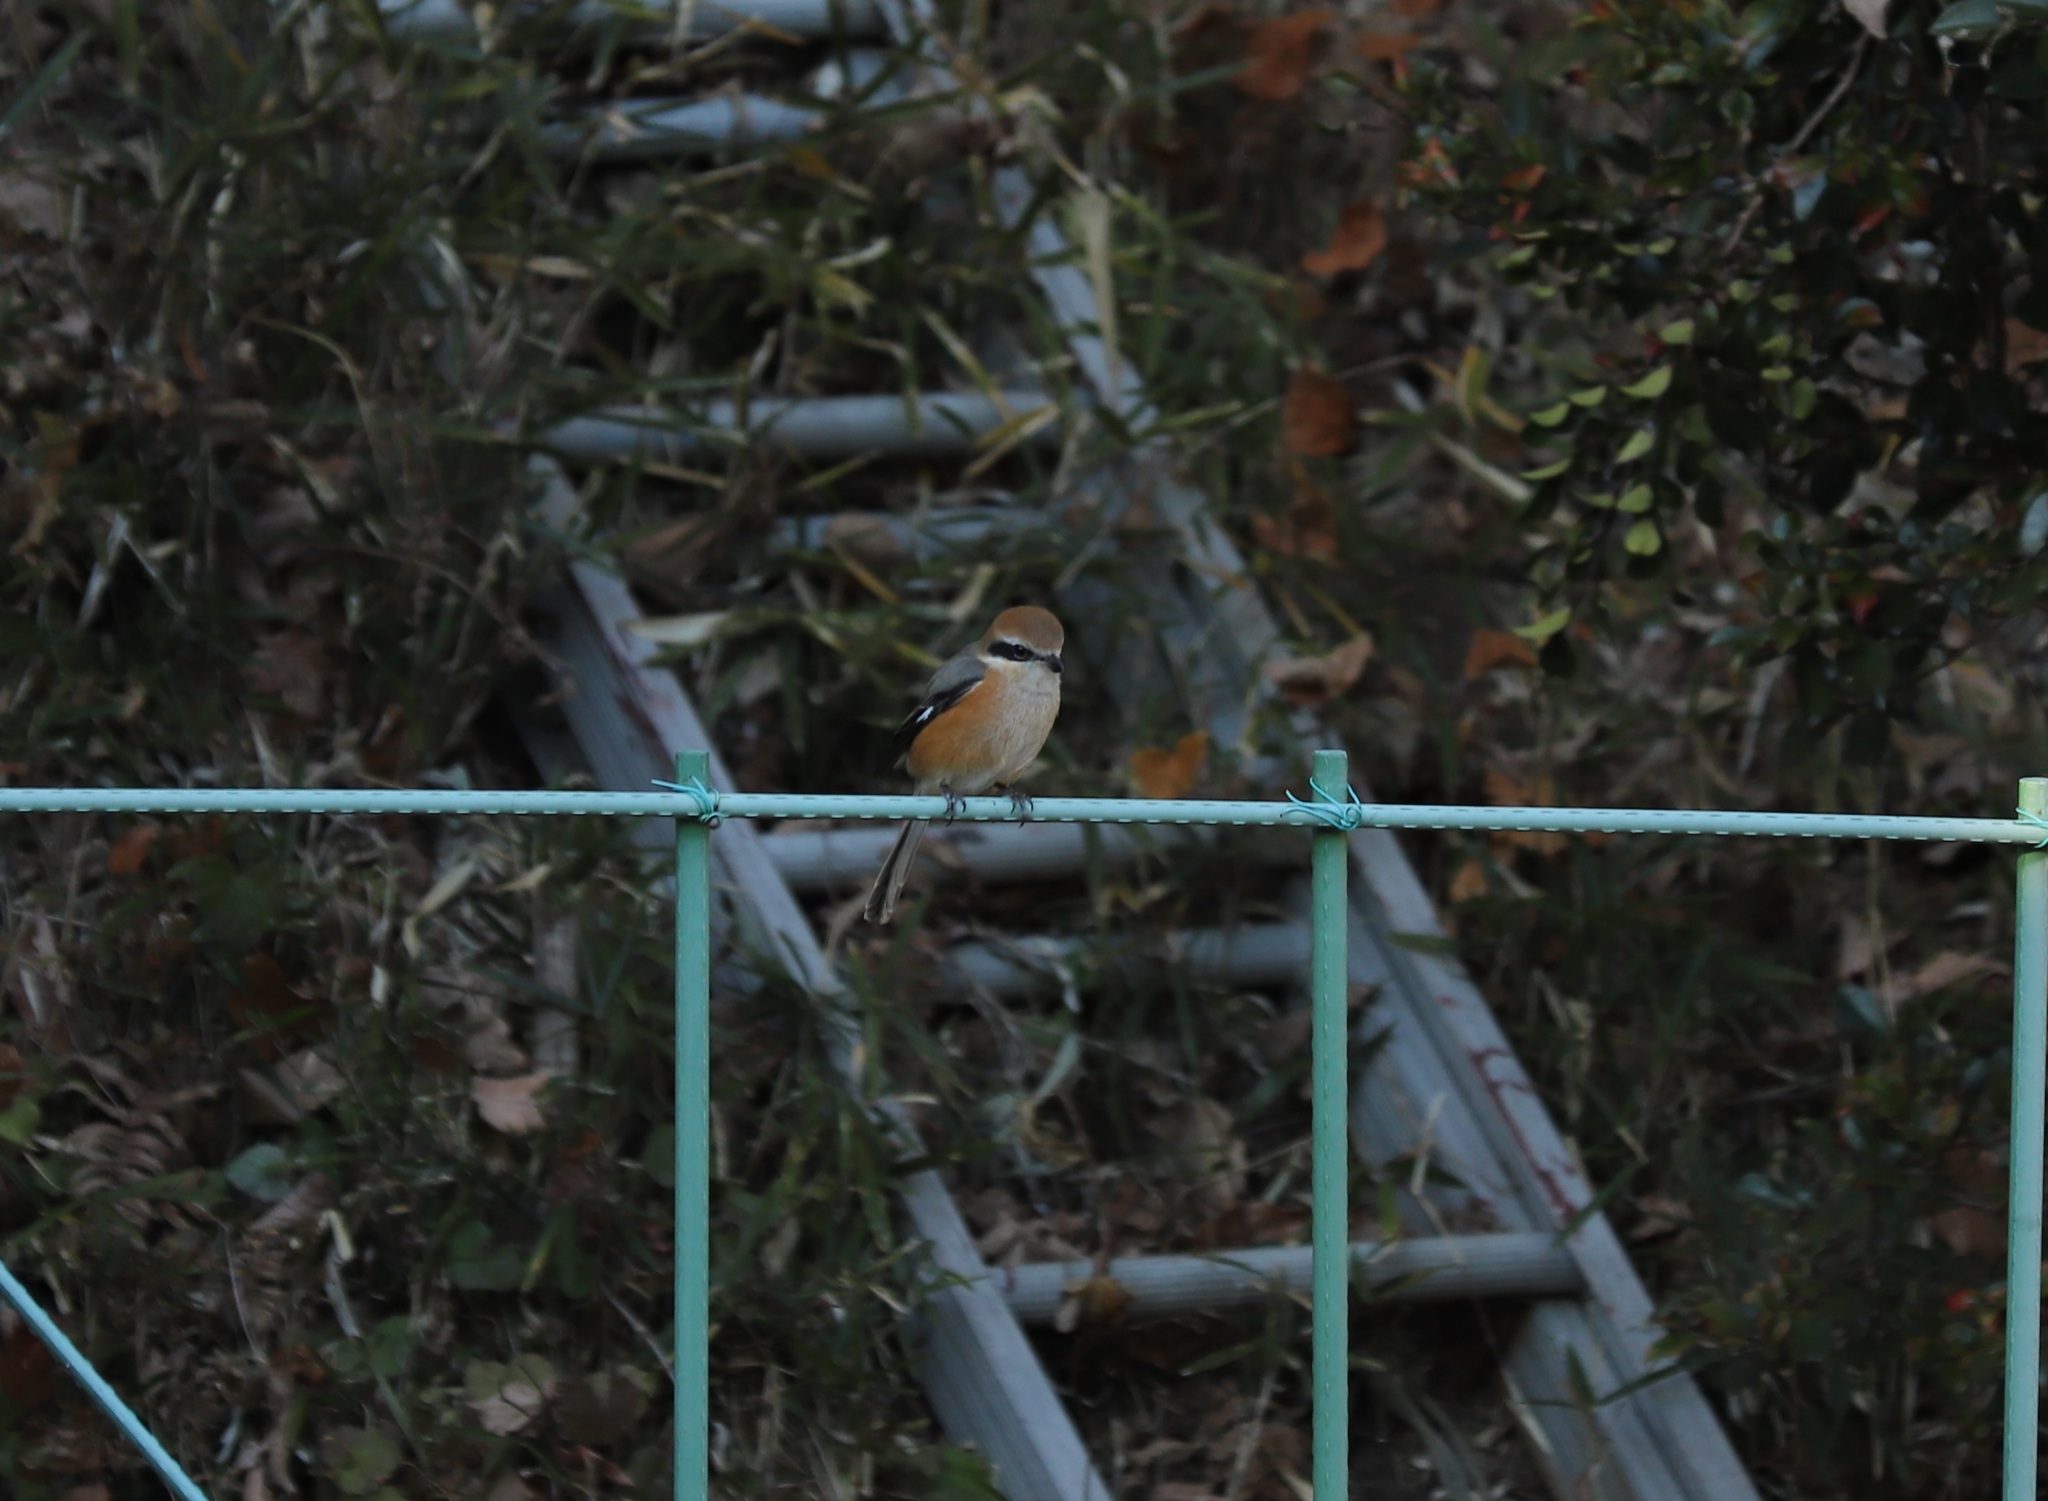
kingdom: Animalia
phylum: Chordata
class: Aves
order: Passeriformes
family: Laniidae
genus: Lanius
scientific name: Lanius bucephalus
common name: Bull-headed shrike
